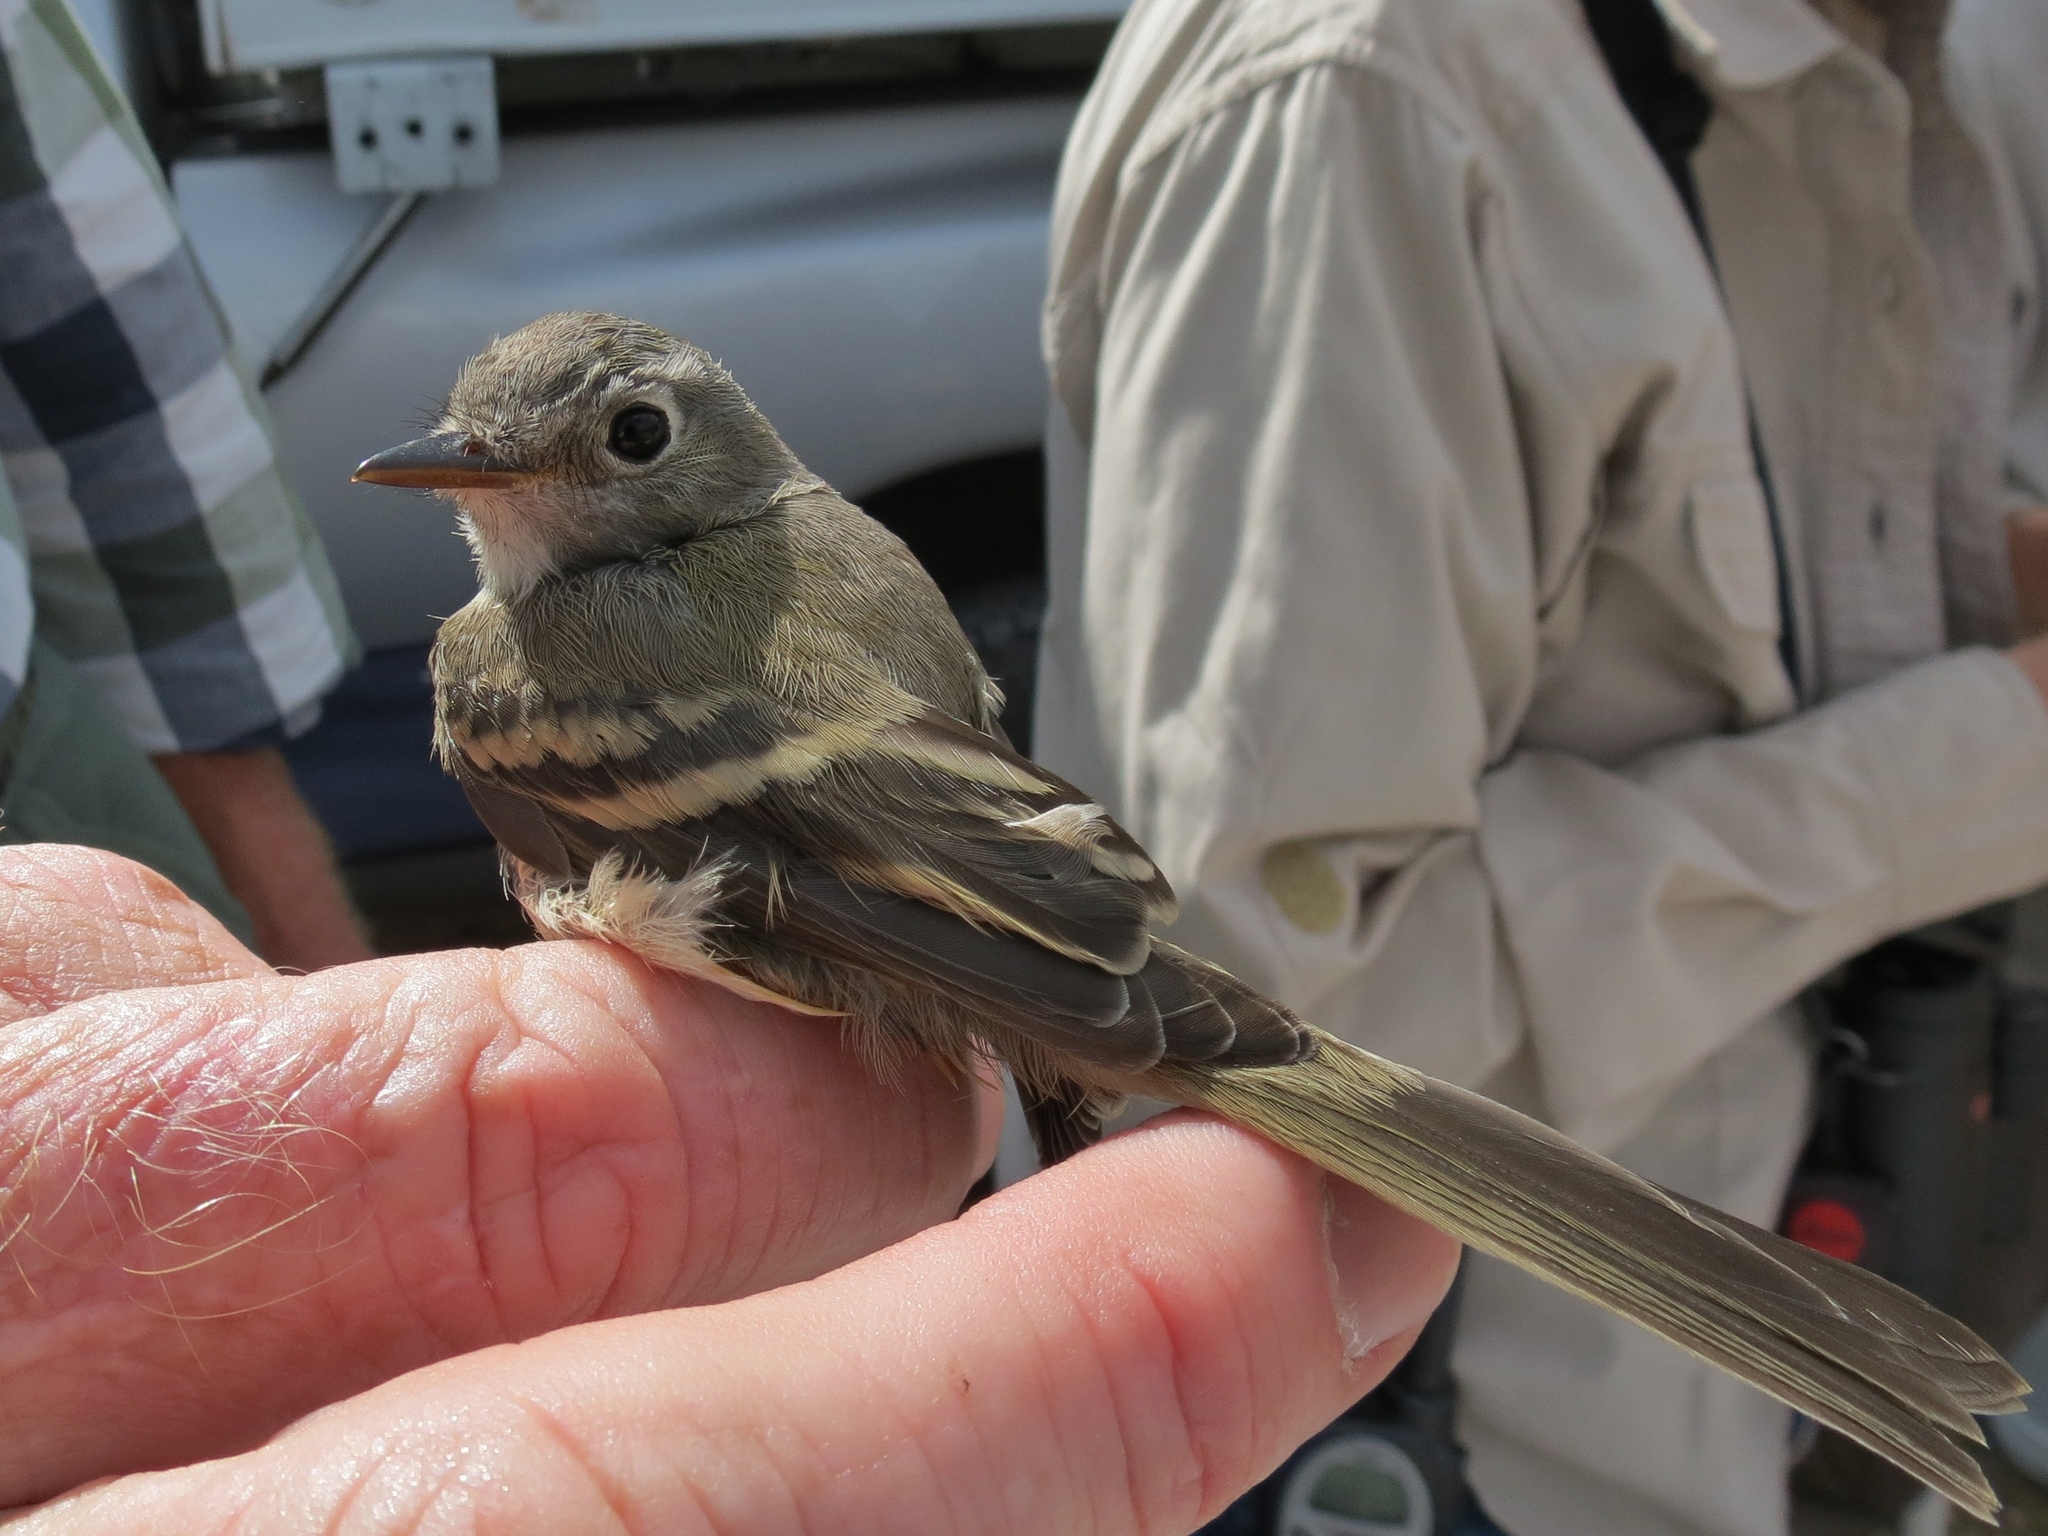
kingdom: Animalia
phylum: Chordata
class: Aves
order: Passeriformes
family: Tyrannidae
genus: Empidonax
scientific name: Empidonax oberholseri
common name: Dusky flycatcher
